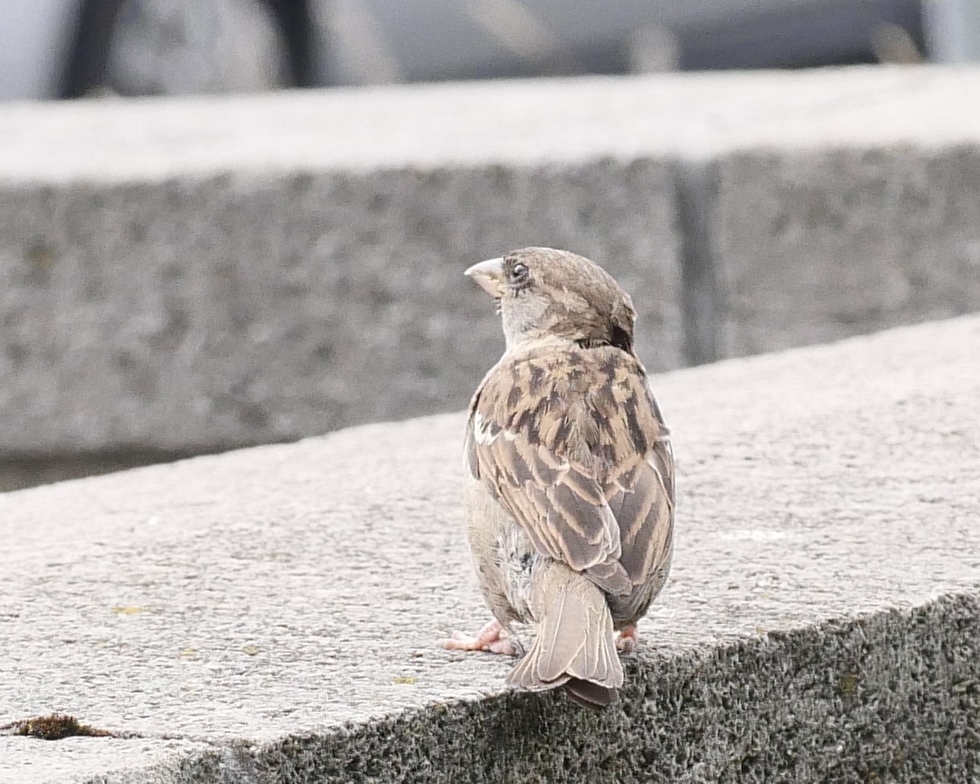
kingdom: Animalia
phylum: Chordata
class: Aves
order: Passeriformes
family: Passeridae
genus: Passer
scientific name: Passer domesticus
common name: House sparrow
